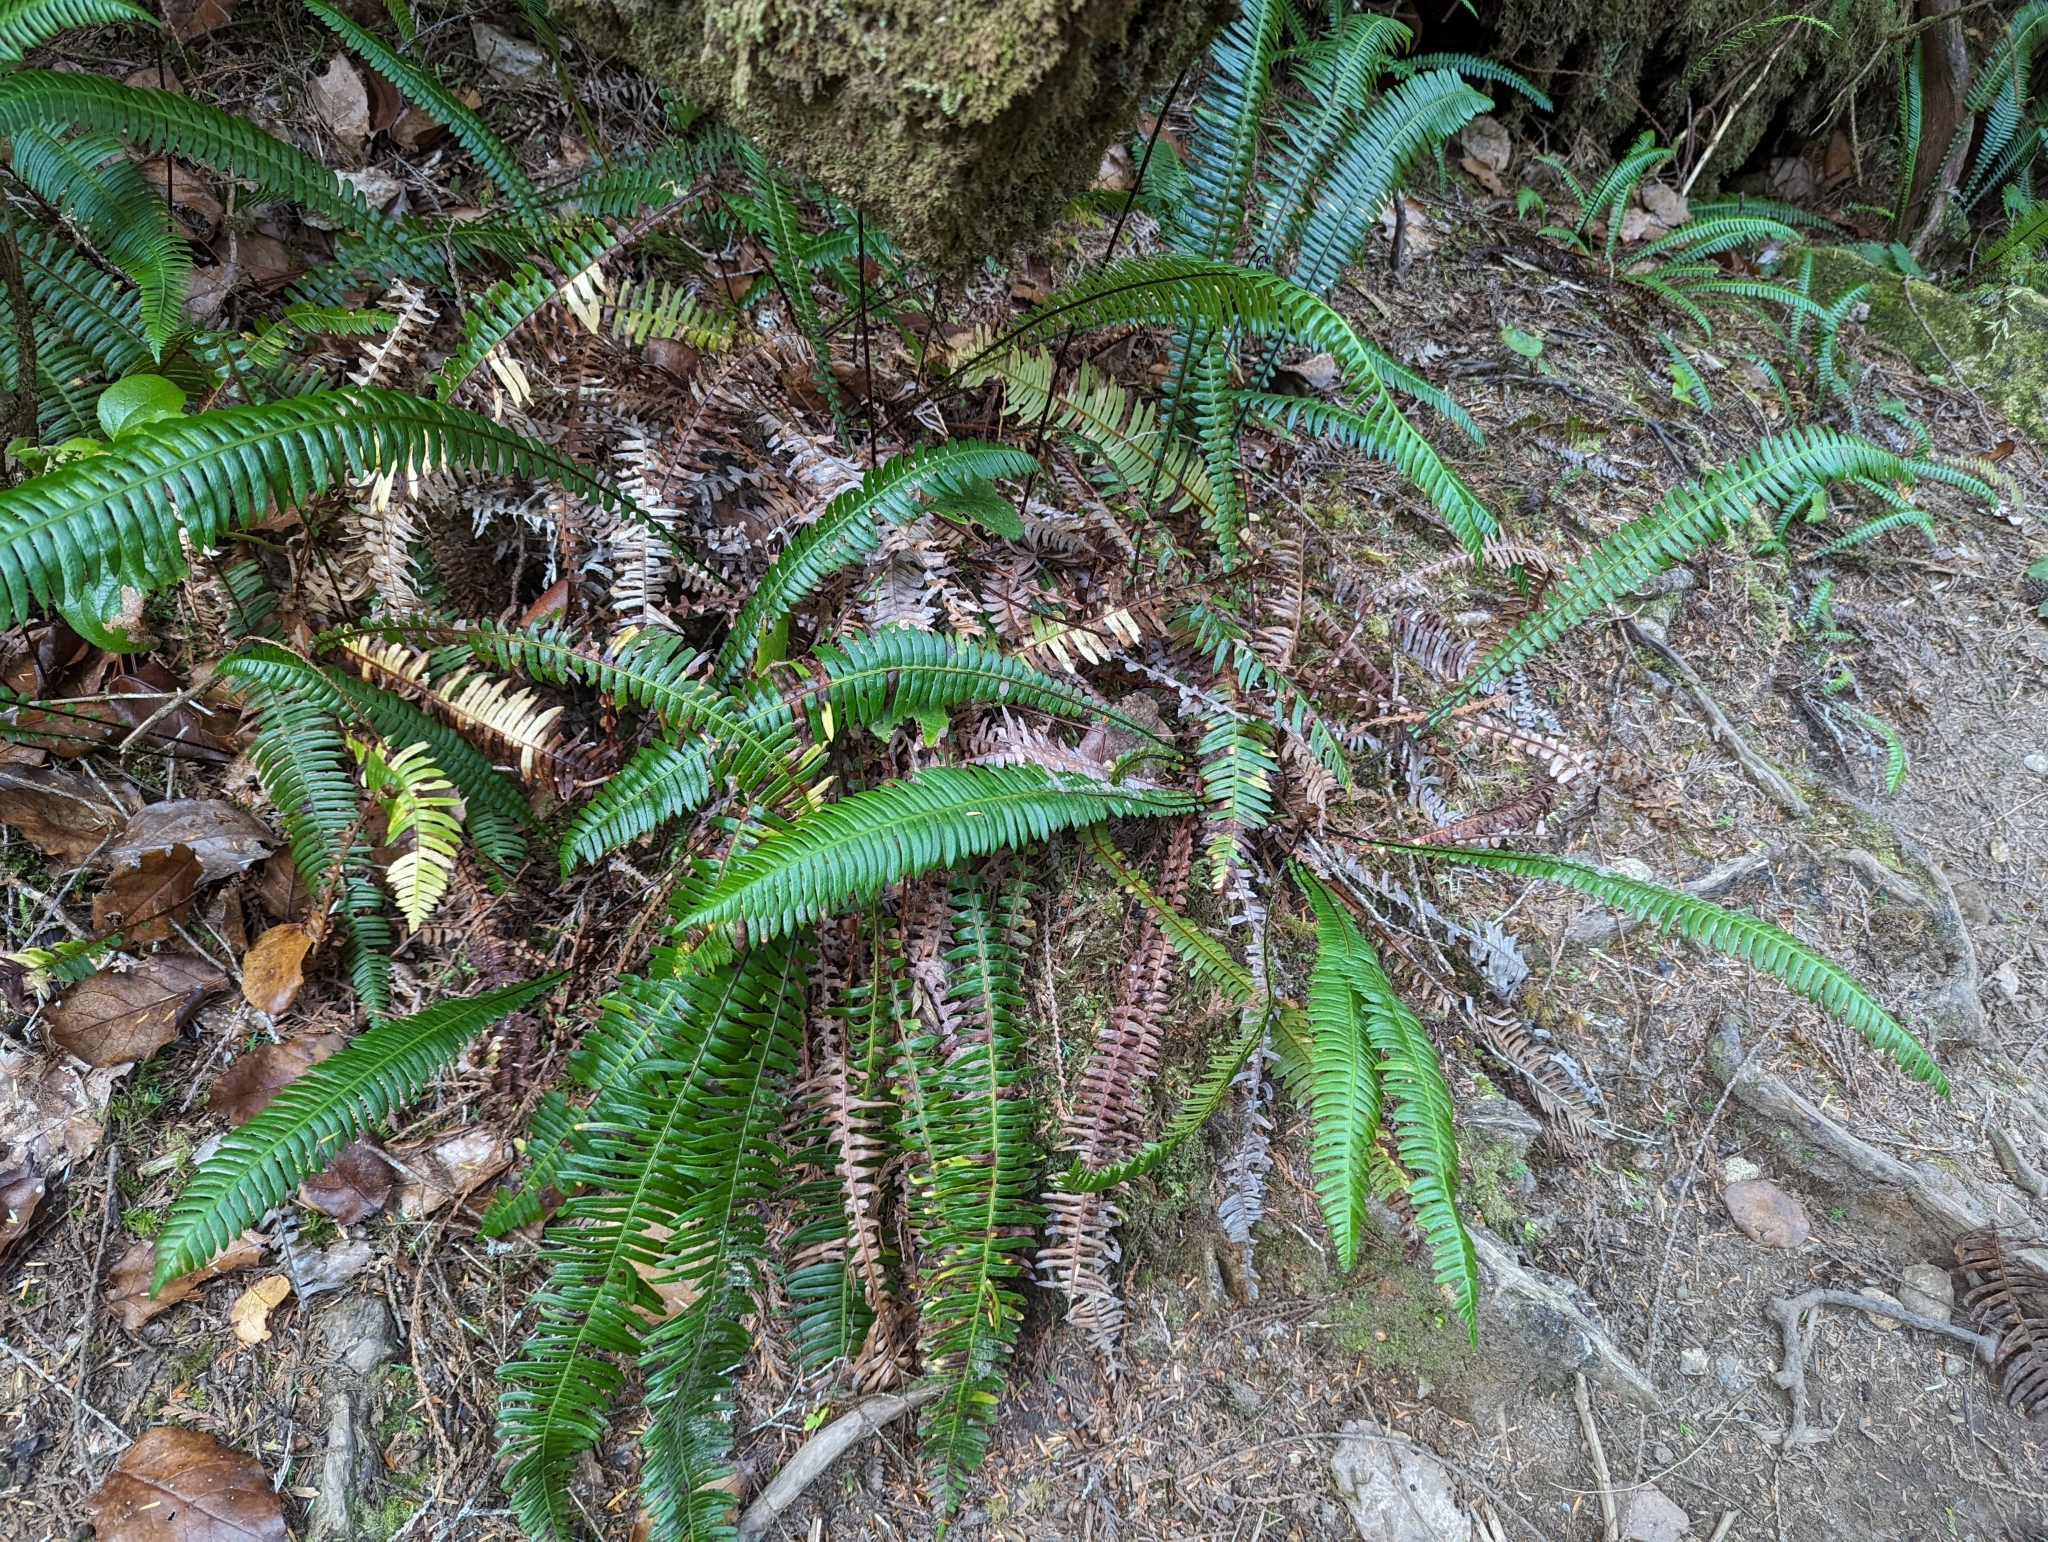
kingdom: Plantae
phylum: Tracheophyta
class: Polypodiopsida
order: Polypodiales
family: Blechnaceae
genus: Struthiopteris
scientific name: Struthiopteris spicant
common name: Deer fern
